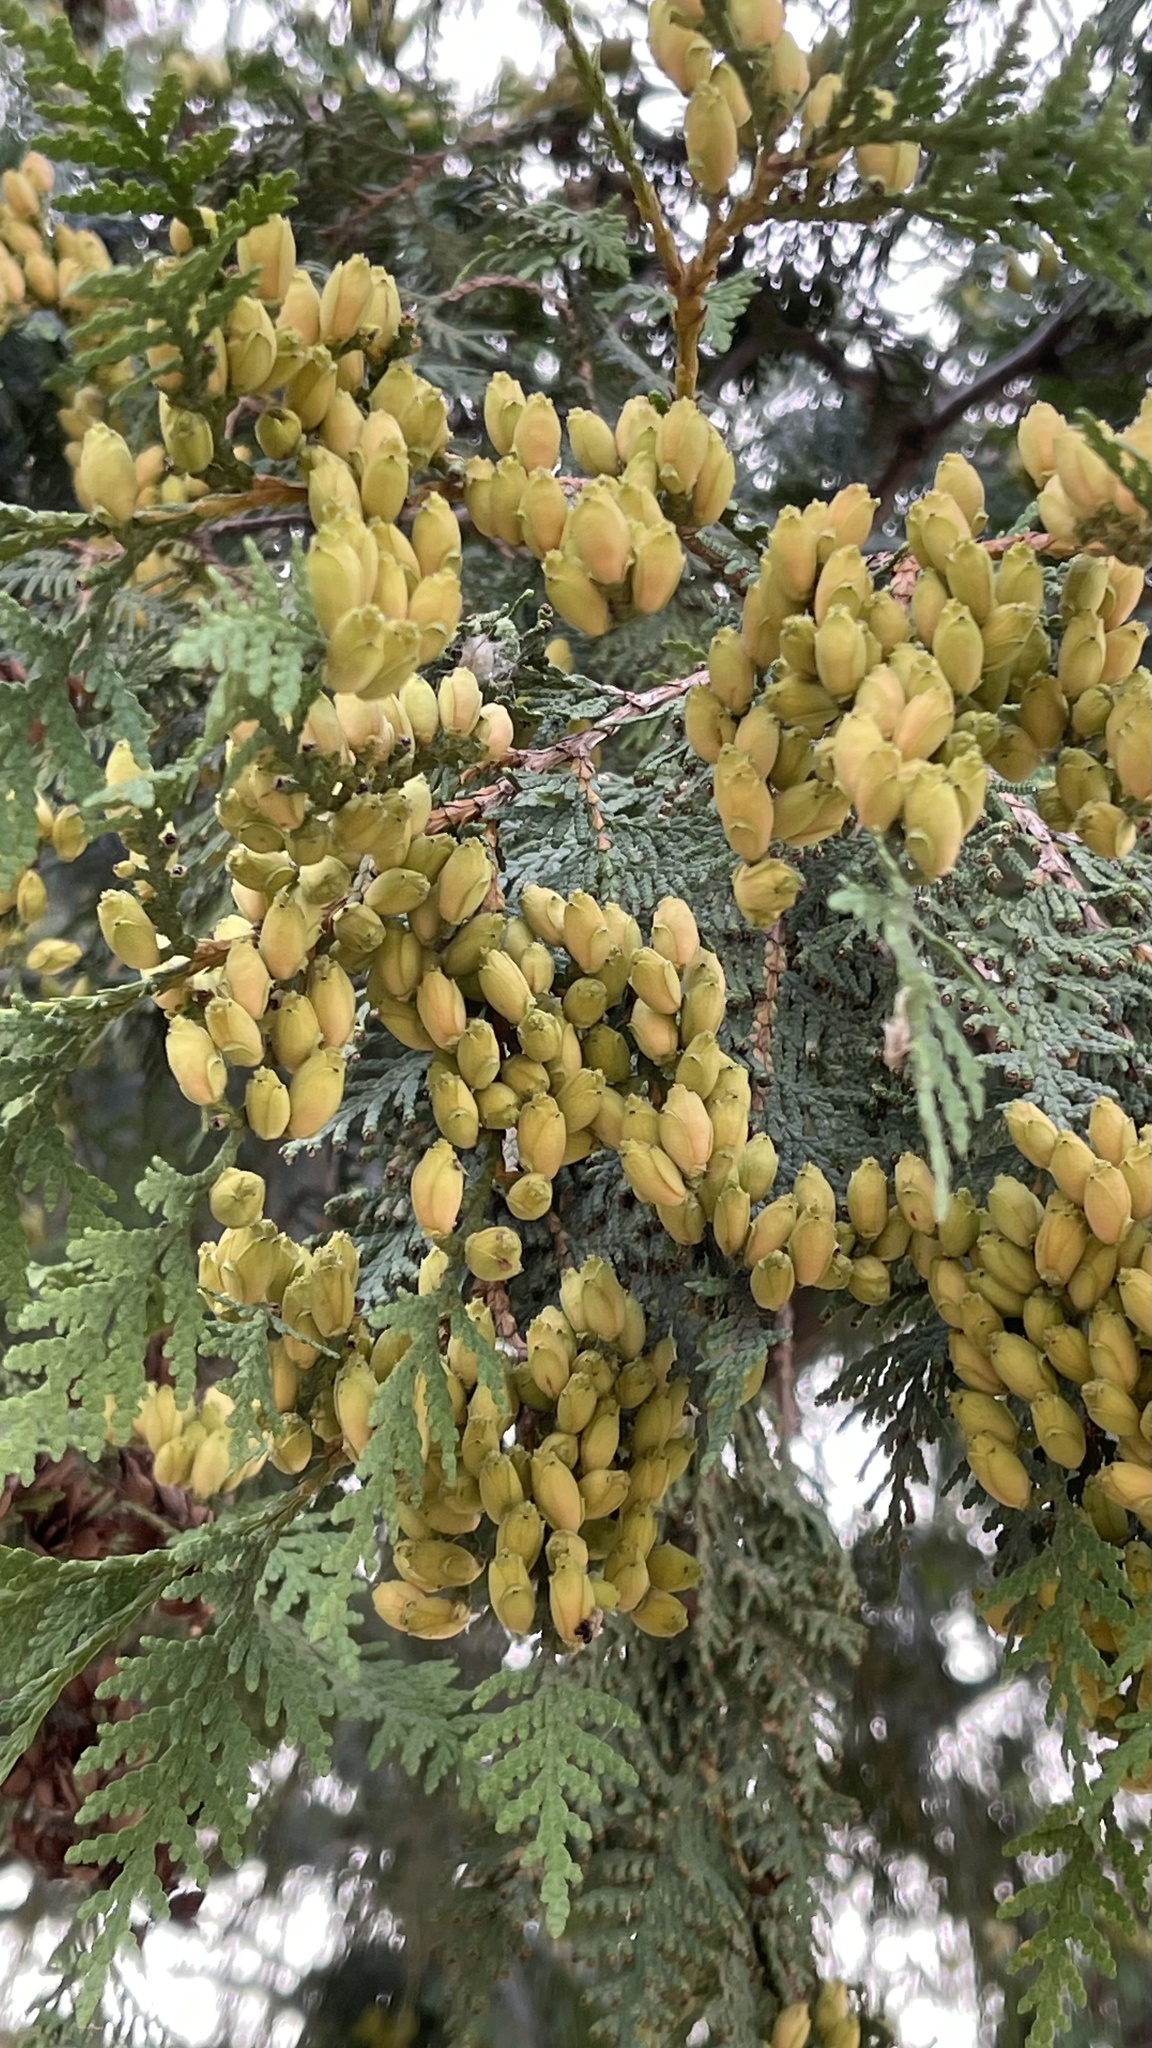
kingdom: Plantae
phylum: Tracheophyta
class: Pinopsida
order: Pinales
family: Cupressaceae
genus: Thuja
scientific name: Thuja occidentalis
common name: Northern white-cedar
